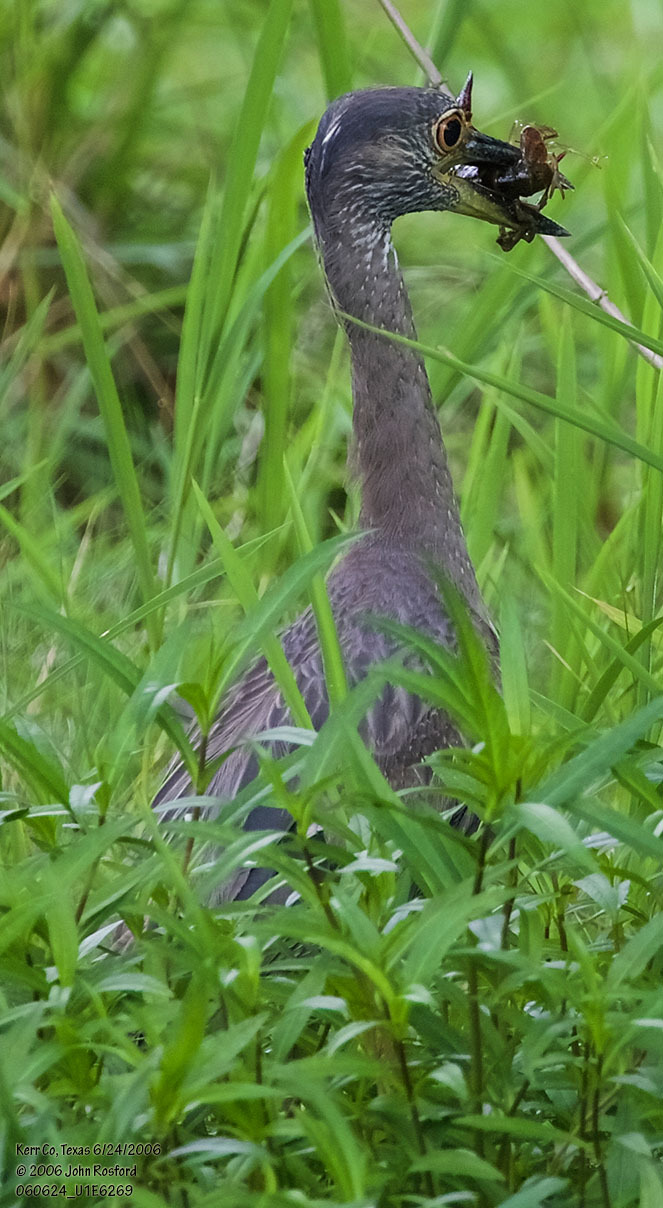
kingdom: Animalia
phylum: Chordata
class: Aves
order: Pelecaniformes
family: Ardeidae
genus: Nyctanassa
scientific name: Nyctanassa violacea
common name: Yellow-crowned night heron
